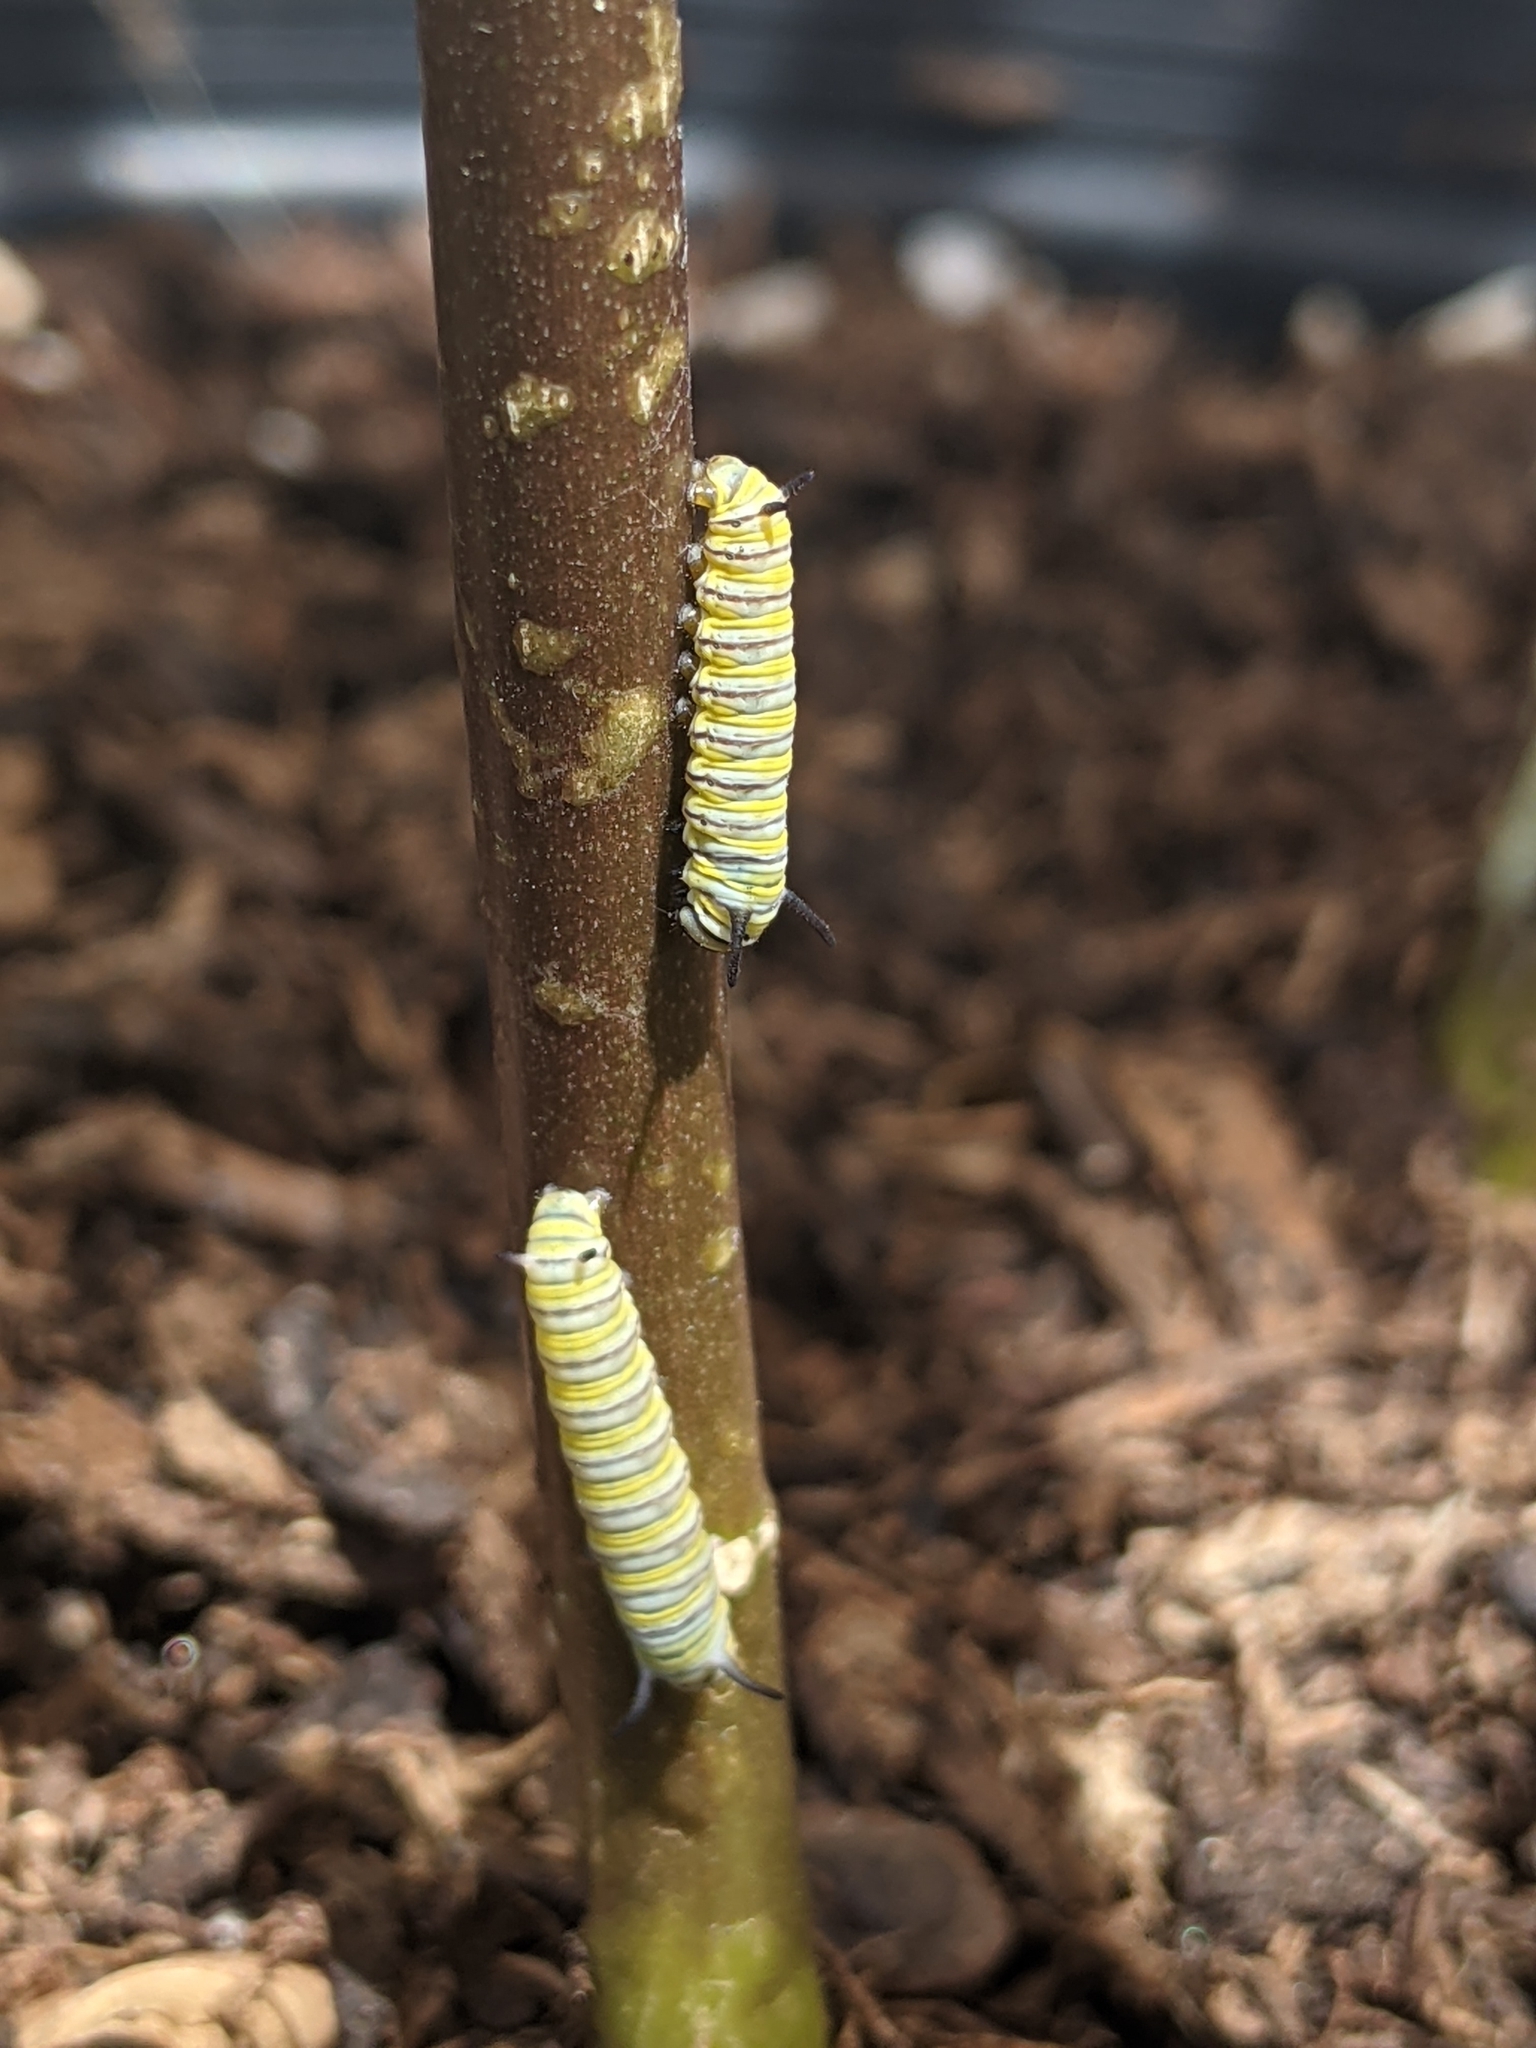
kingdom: Animalia
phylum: Arthropoda
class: Insecta
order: Lepidoptera
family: Nymphalidae
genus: Danaus
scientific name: Danaus plexippus
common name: Monarch
